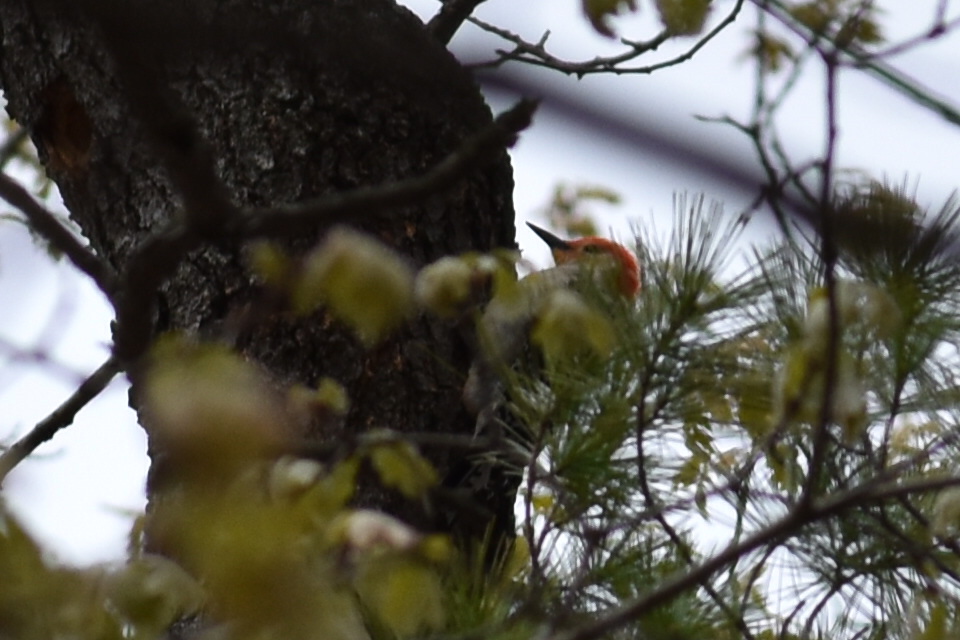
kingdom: Animalia
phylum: Chordata
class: Aves
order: Piciformes
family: Picidae
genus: Melanerpes
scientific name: Melanerpes carolinus
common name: Red-bellied woodpecker
